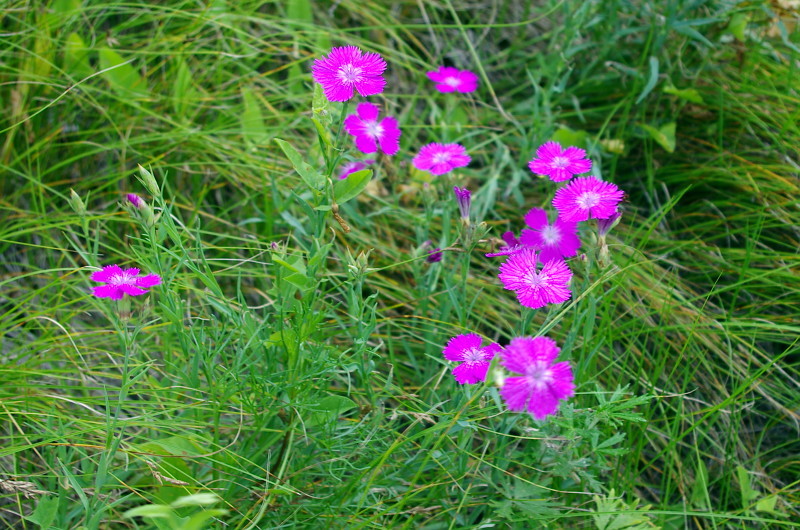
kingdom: Plantae
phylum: Tracheophyta
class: Magnoliopsida
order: Caryophyllales
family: Caryophyllaceae
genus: Dianthus
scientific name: Dianthus chinensis
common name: Rainbow pink
